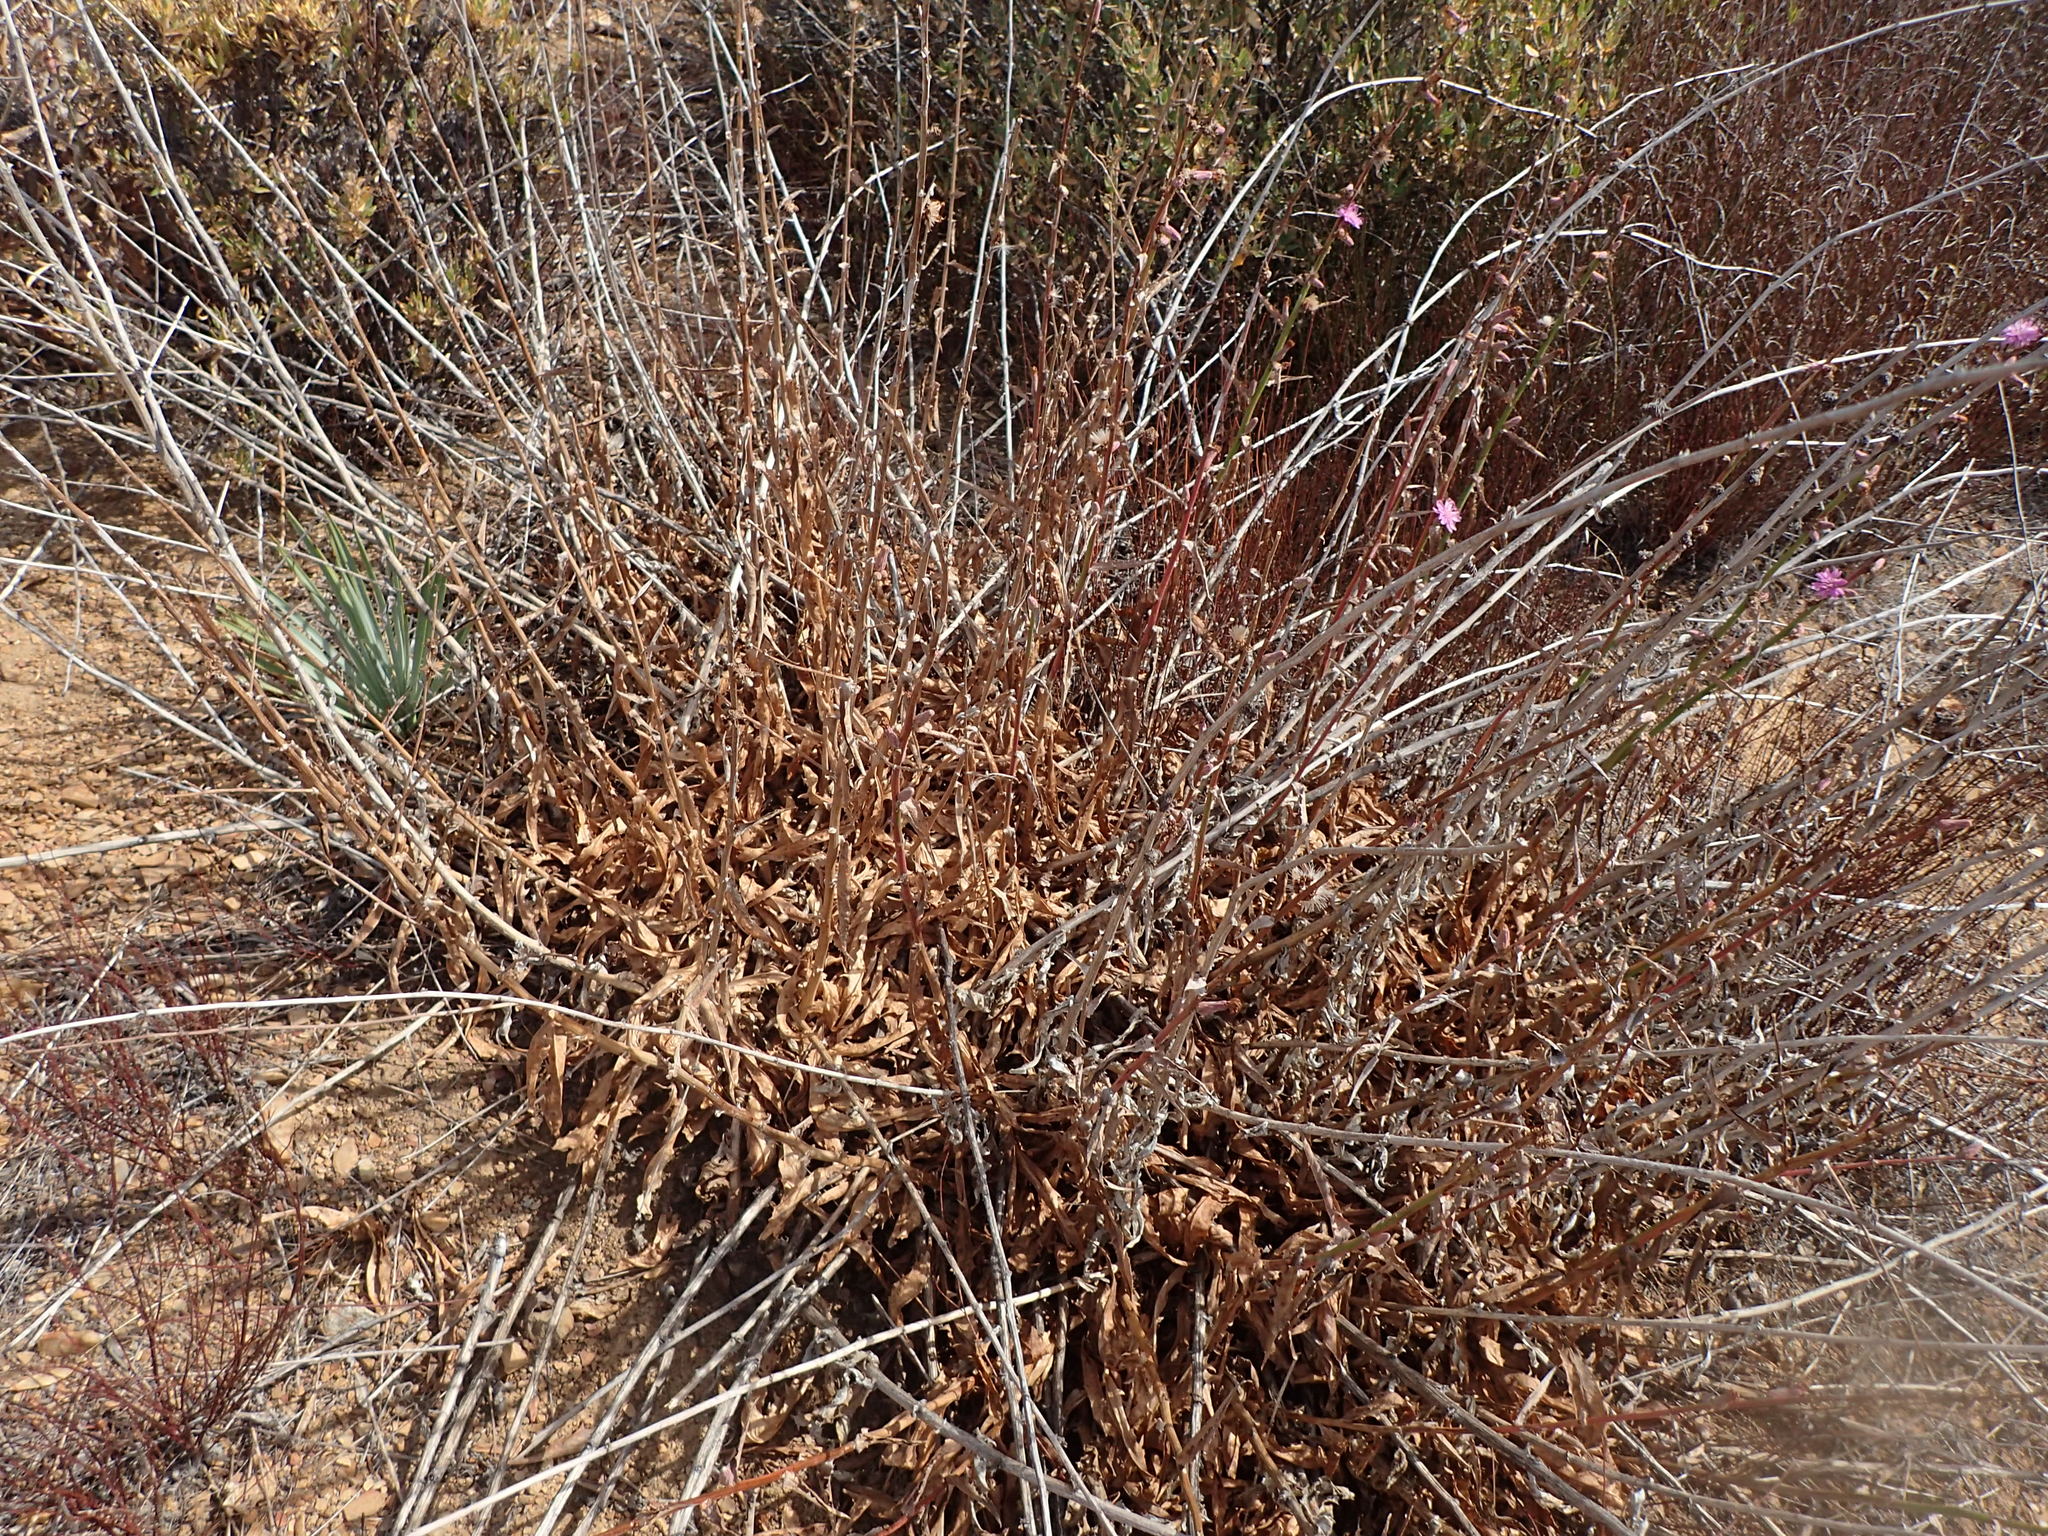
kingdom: Plantae
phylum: Tracheophyta
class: Magnoliopsida
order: Asterales
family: Asteraceae
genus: Stephanomeria
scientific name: Stephanomeria cichoriacea
